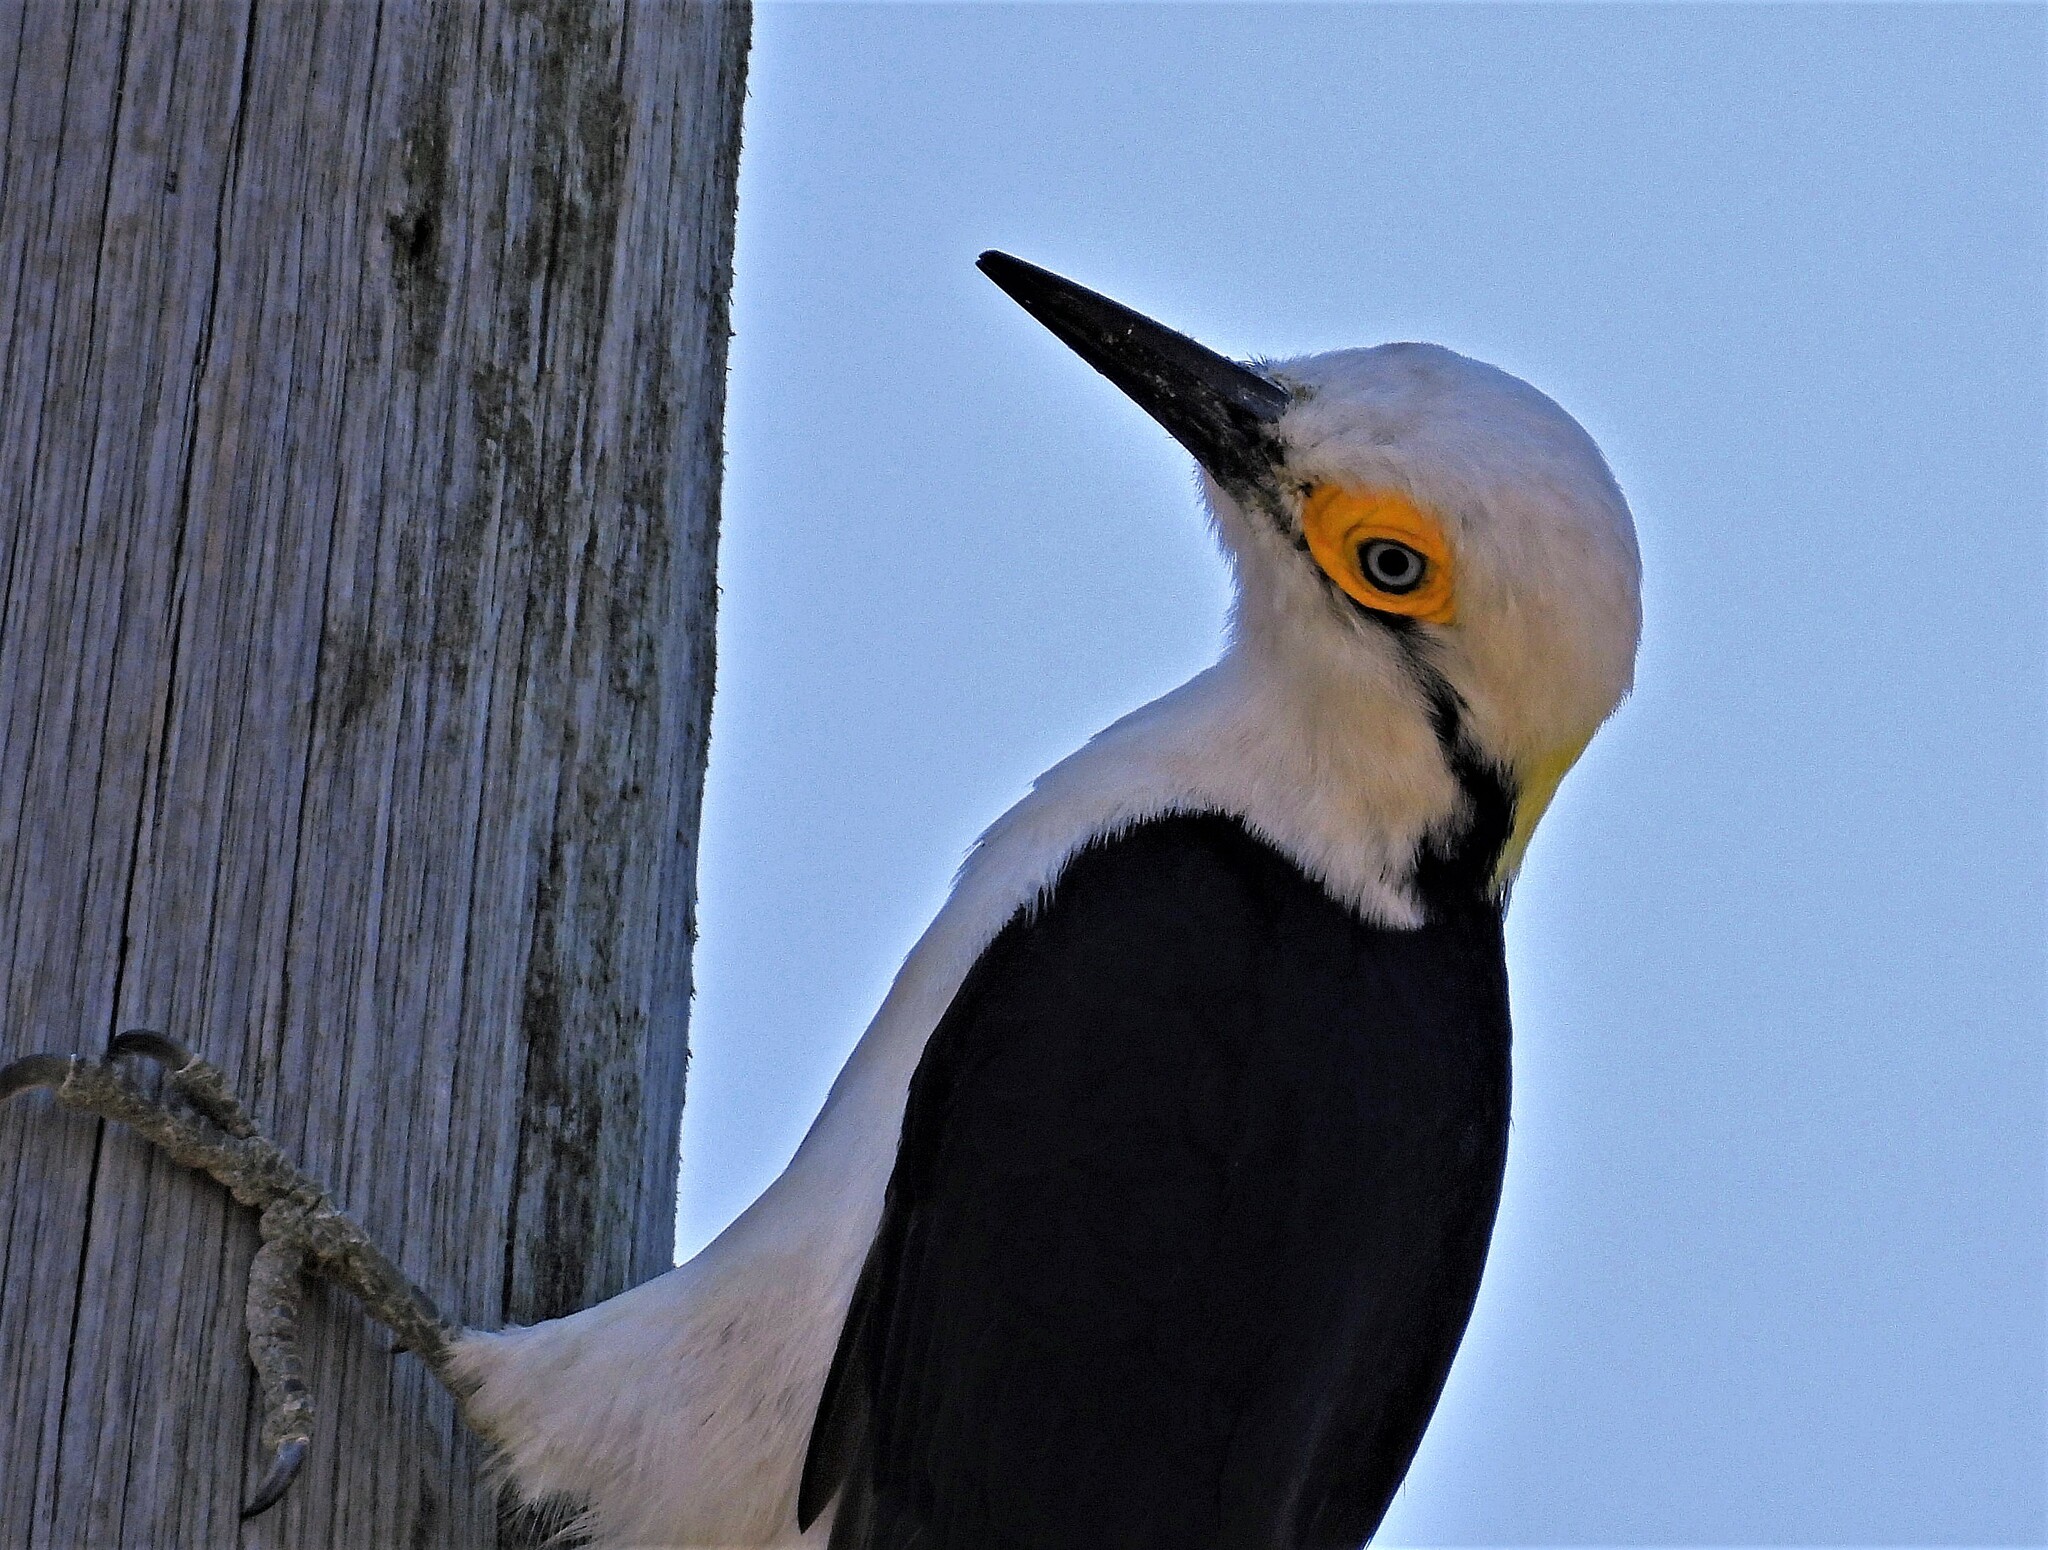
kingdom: Animalia
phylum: Chordata
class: Aves
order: Piciformes
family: Picidae
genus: Melanerpes
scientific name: Melanerpes candidus
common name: White woodpecker
